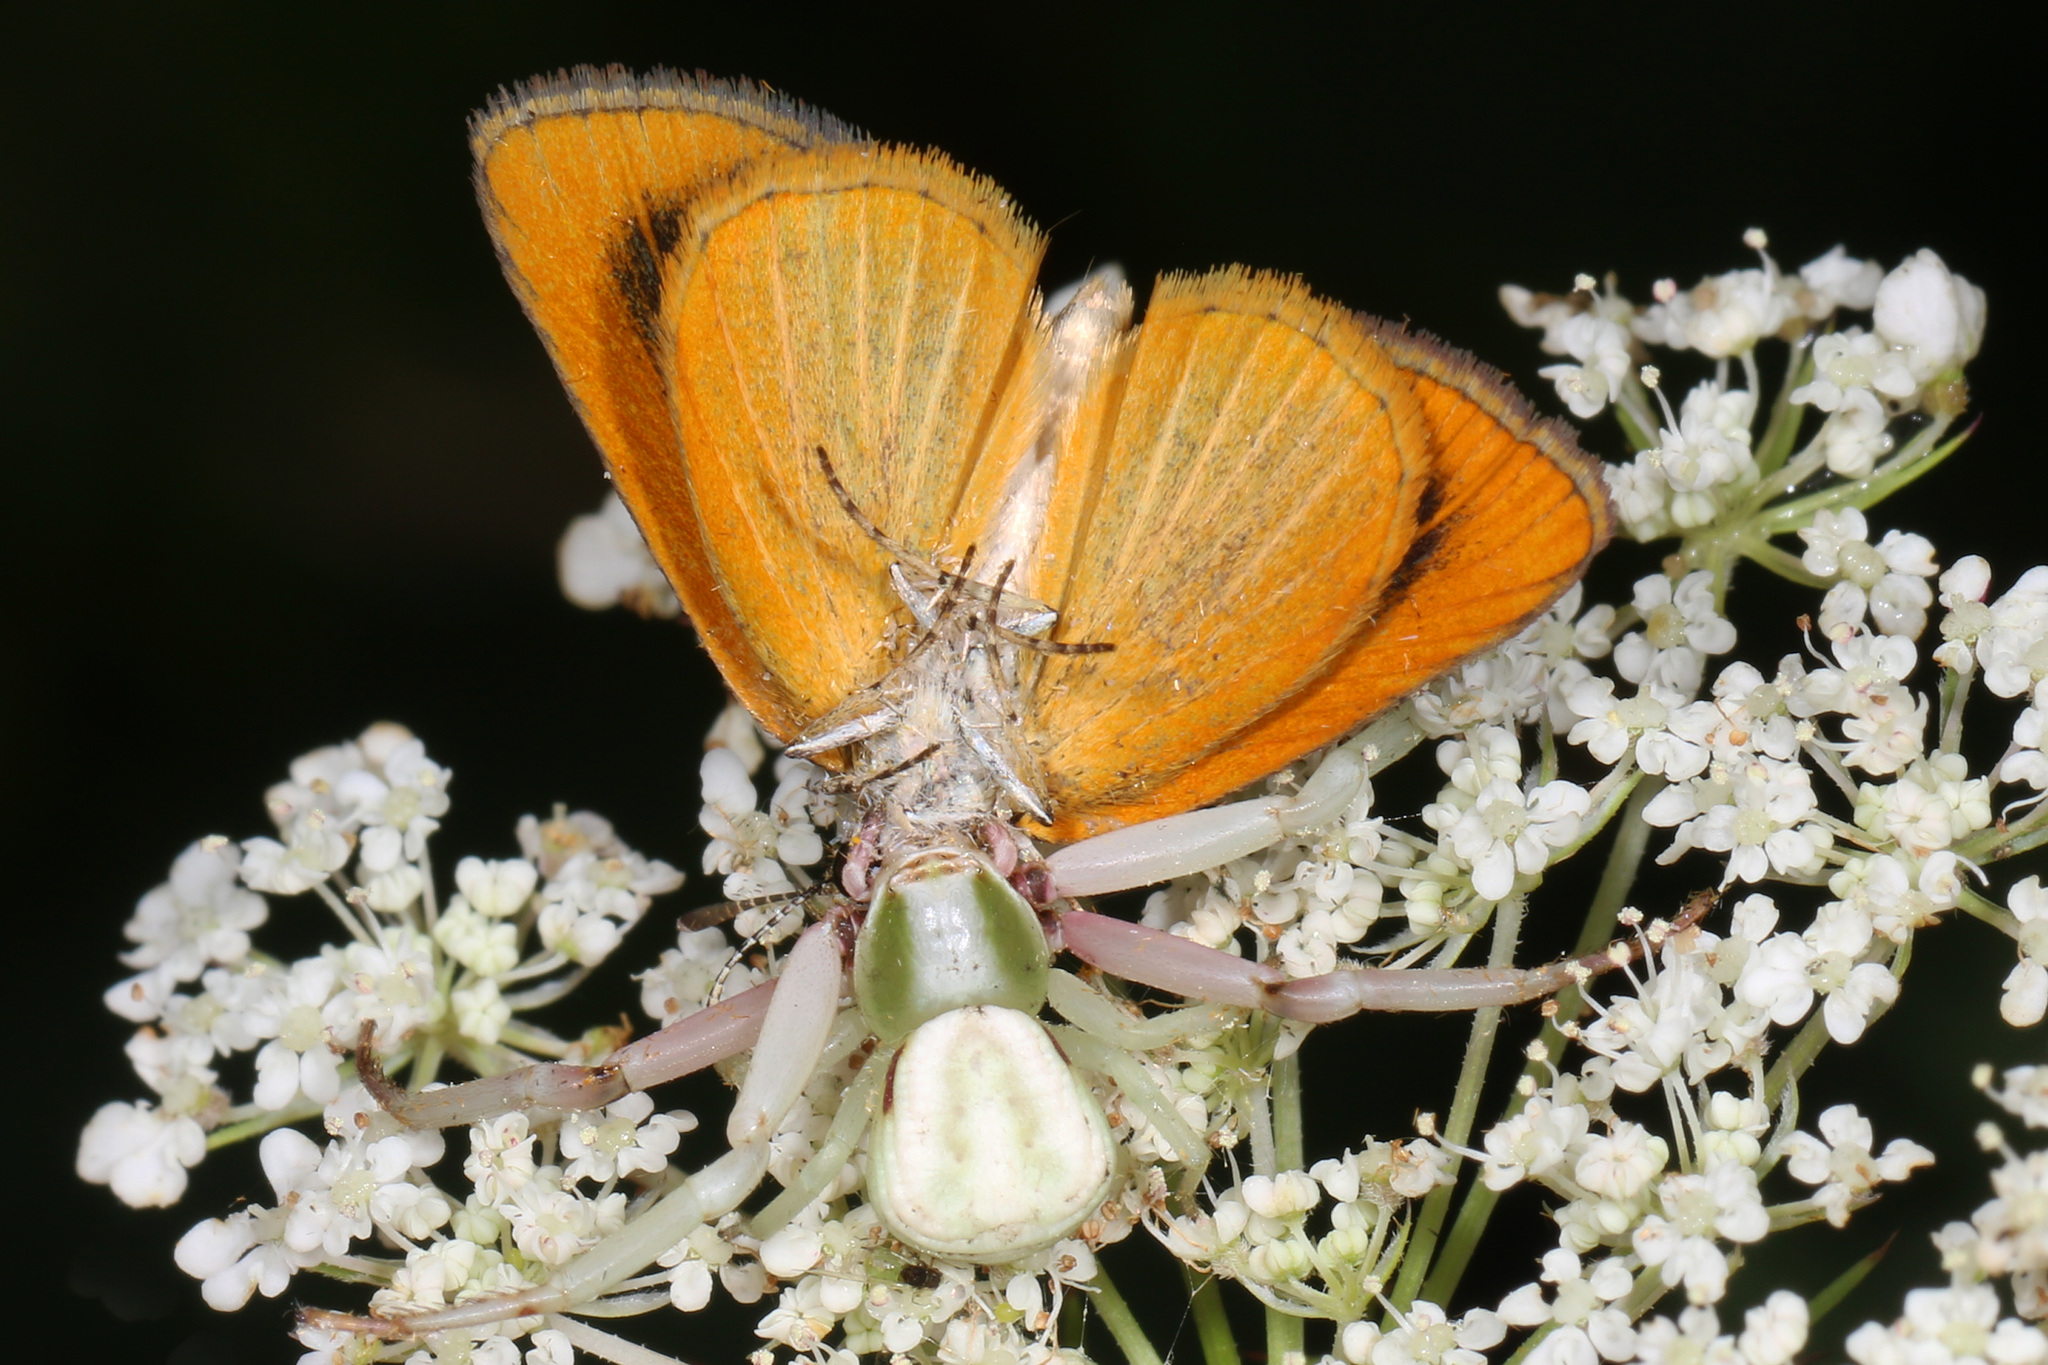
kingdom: Animalia
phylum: Arthropoda
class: Arachnida
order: Araneae
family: Thomisidae
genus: Misumenoides
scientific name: Misumenoides formosipes
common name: White-banded crab spider
